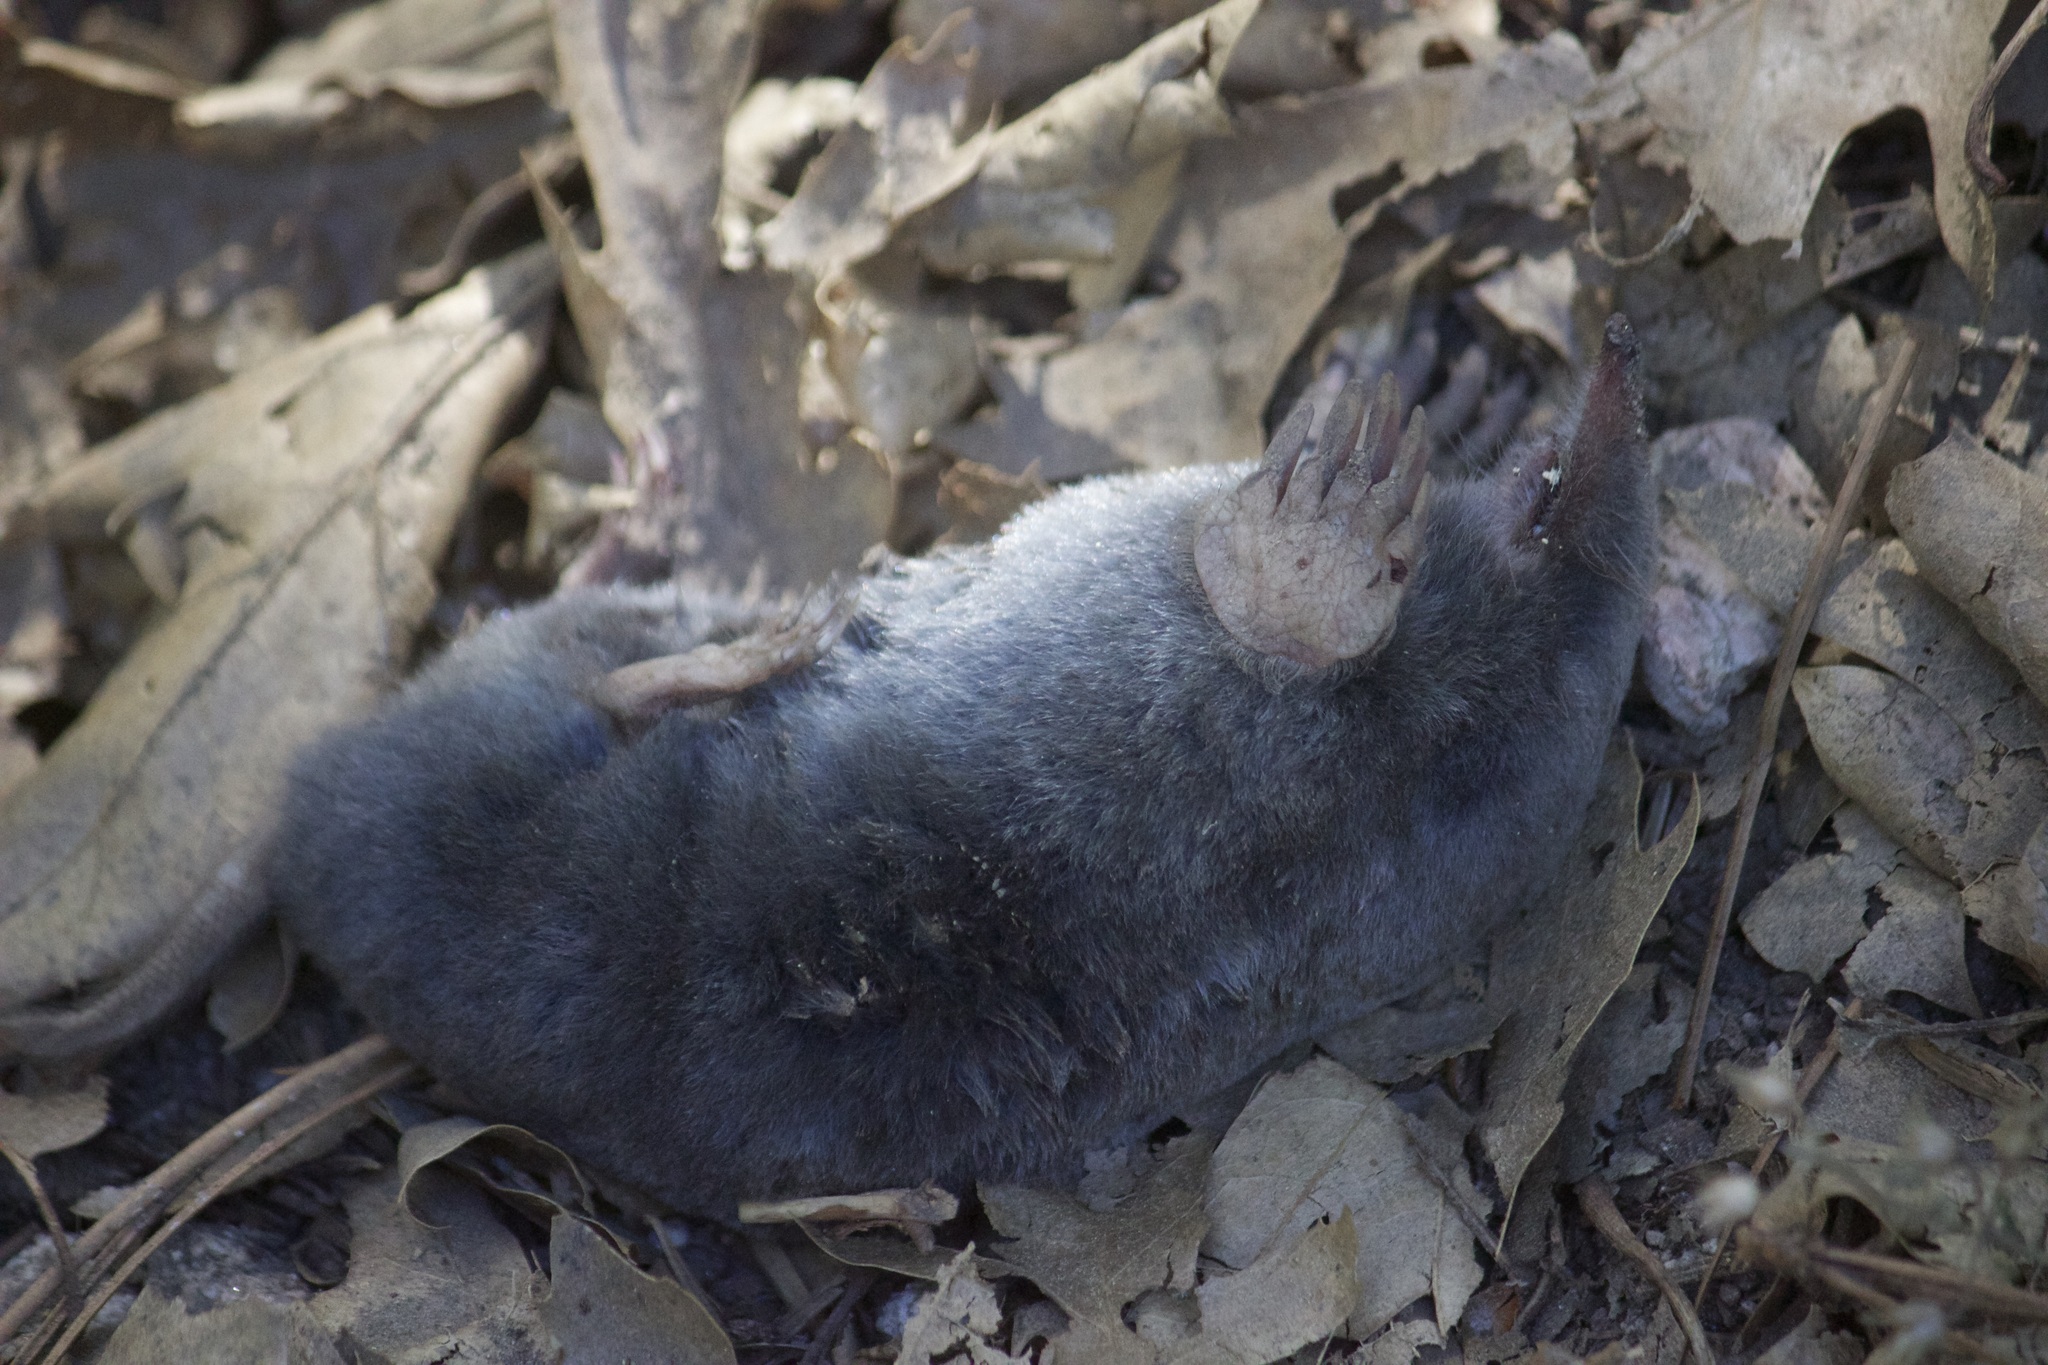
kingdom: Animalia
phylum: Chordata
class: Mammalia
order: Soricomorpha
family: Talpidae
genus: Scapanus
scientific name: Scapanus latimanus
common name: Broad-footed mole
